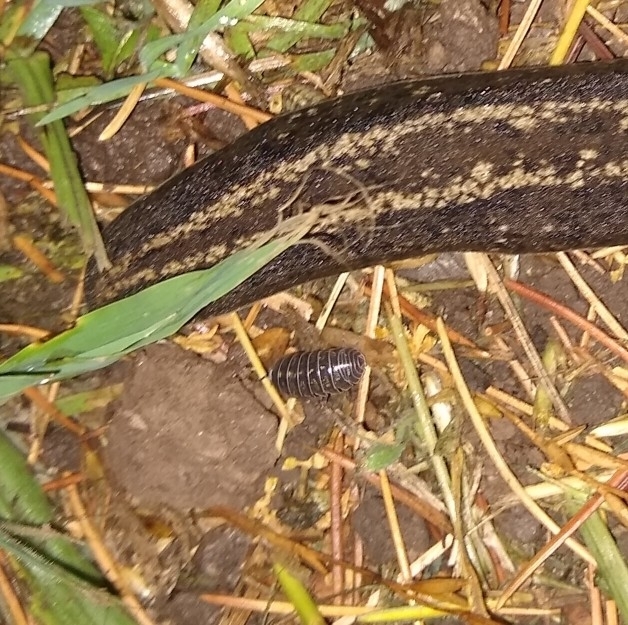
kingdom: Animalia
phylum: Arthropoda
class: Malacostraca
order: Isopoda
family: Armadillidiidae
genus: Armadillidium
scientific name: Armadillidium vulgare
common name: Common pill woodlouse
